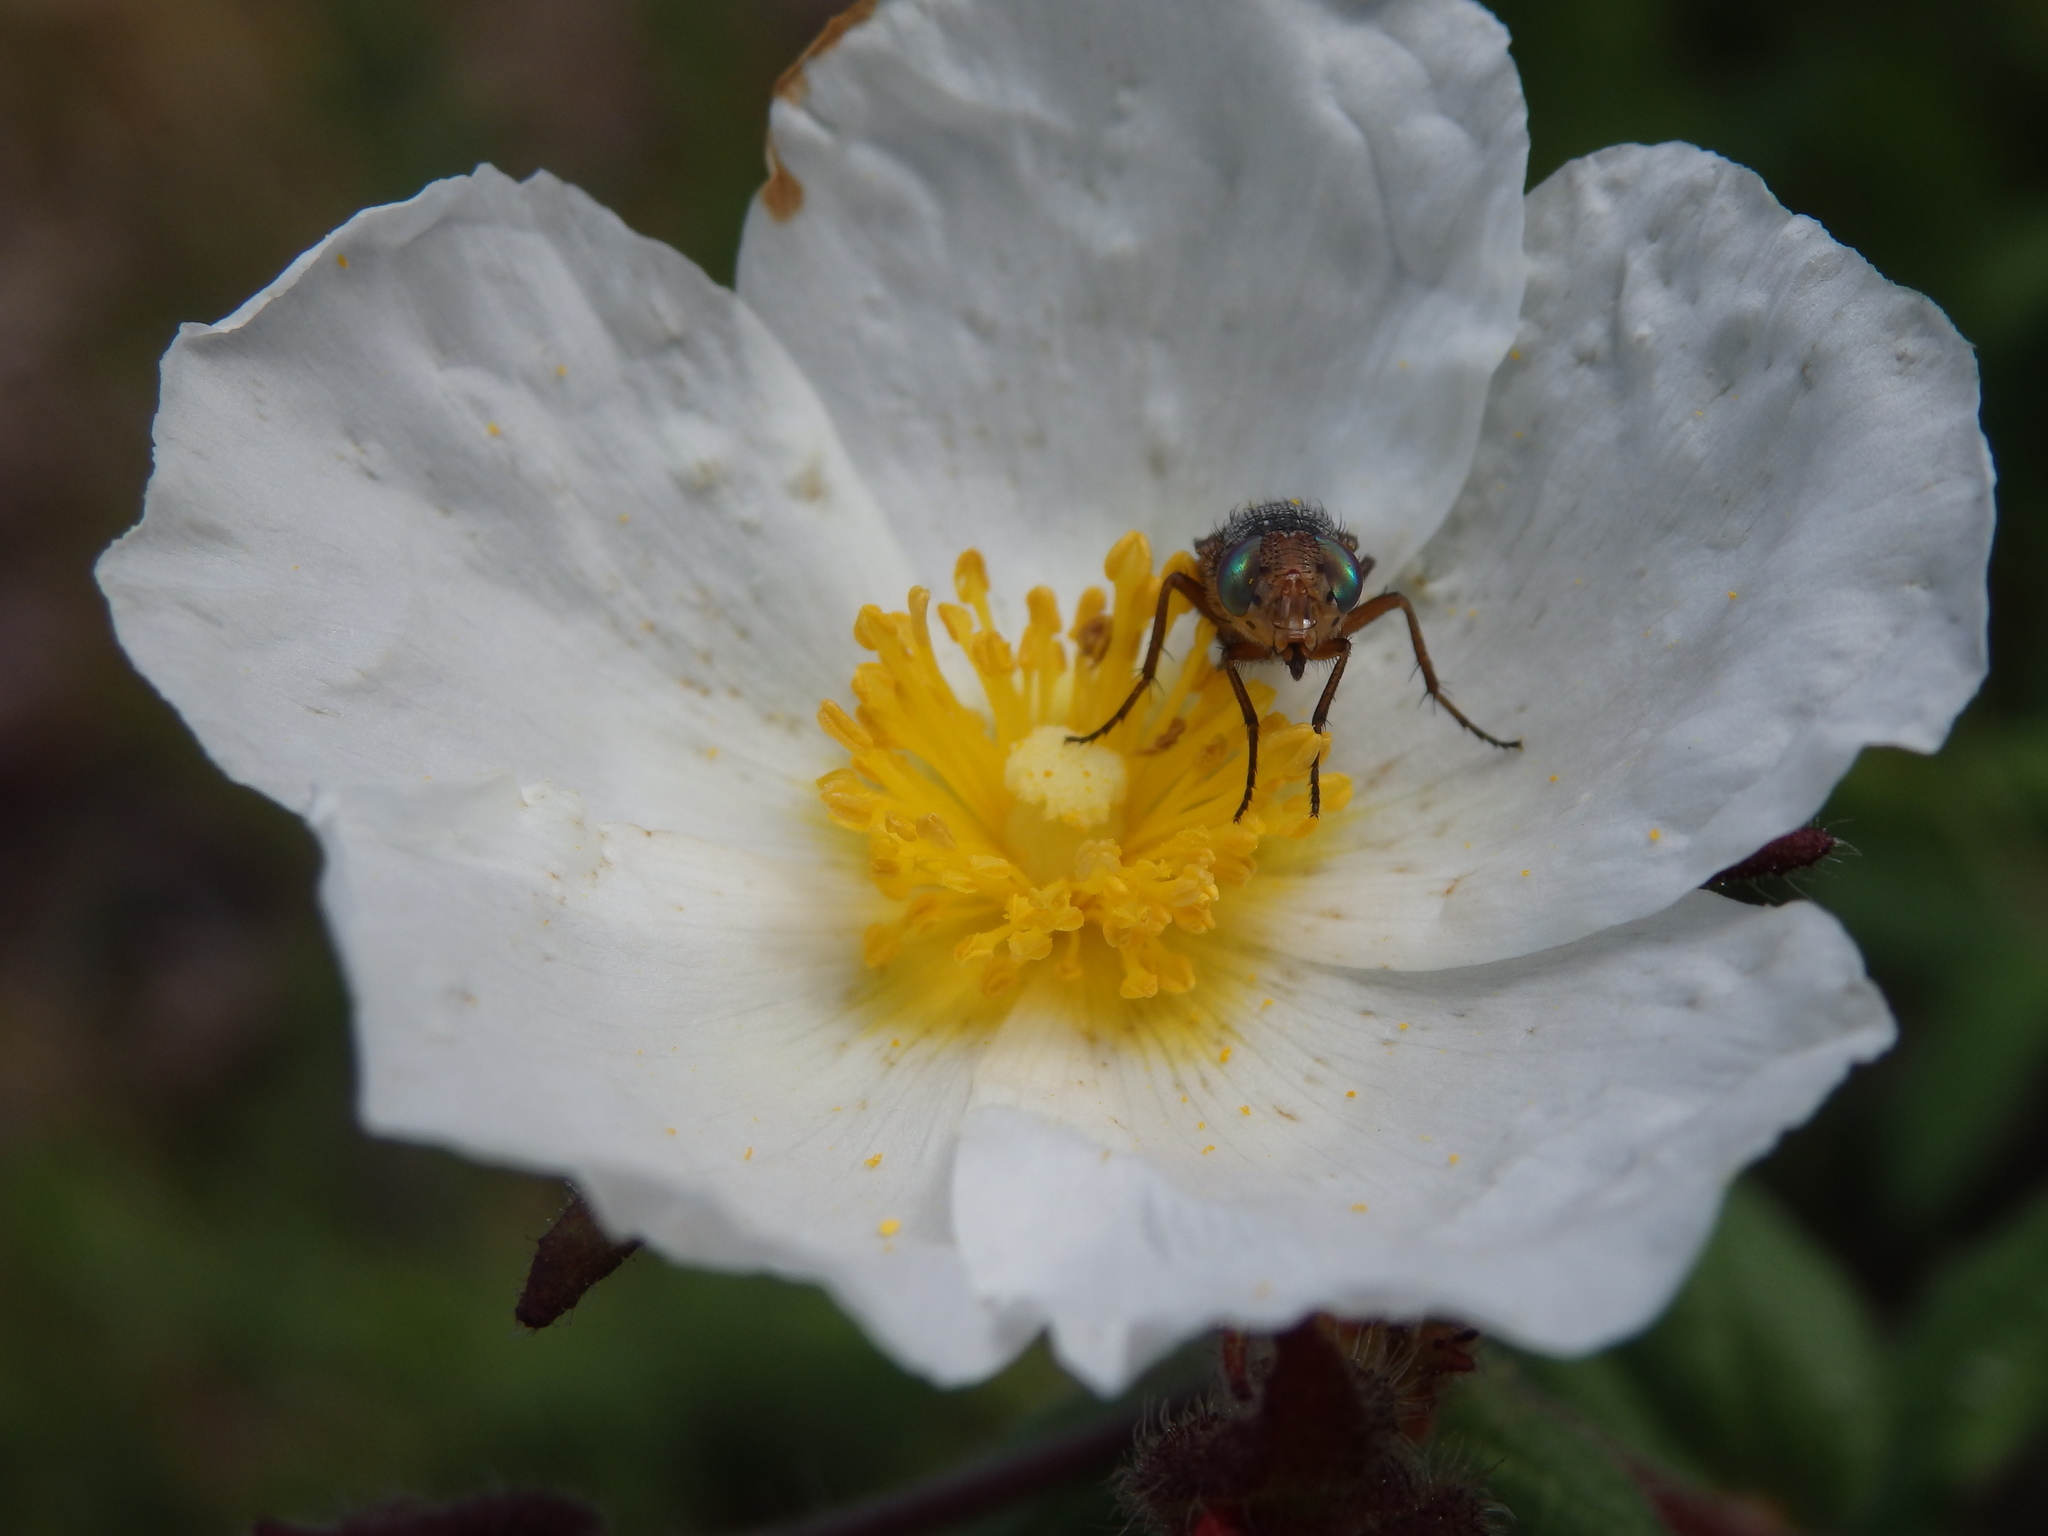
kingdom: Animalia
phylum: Arthropoda
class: Insecta
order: Diptera
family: Calliphoridae
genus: Rhyncomya
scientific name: Rhyncomya columbina
